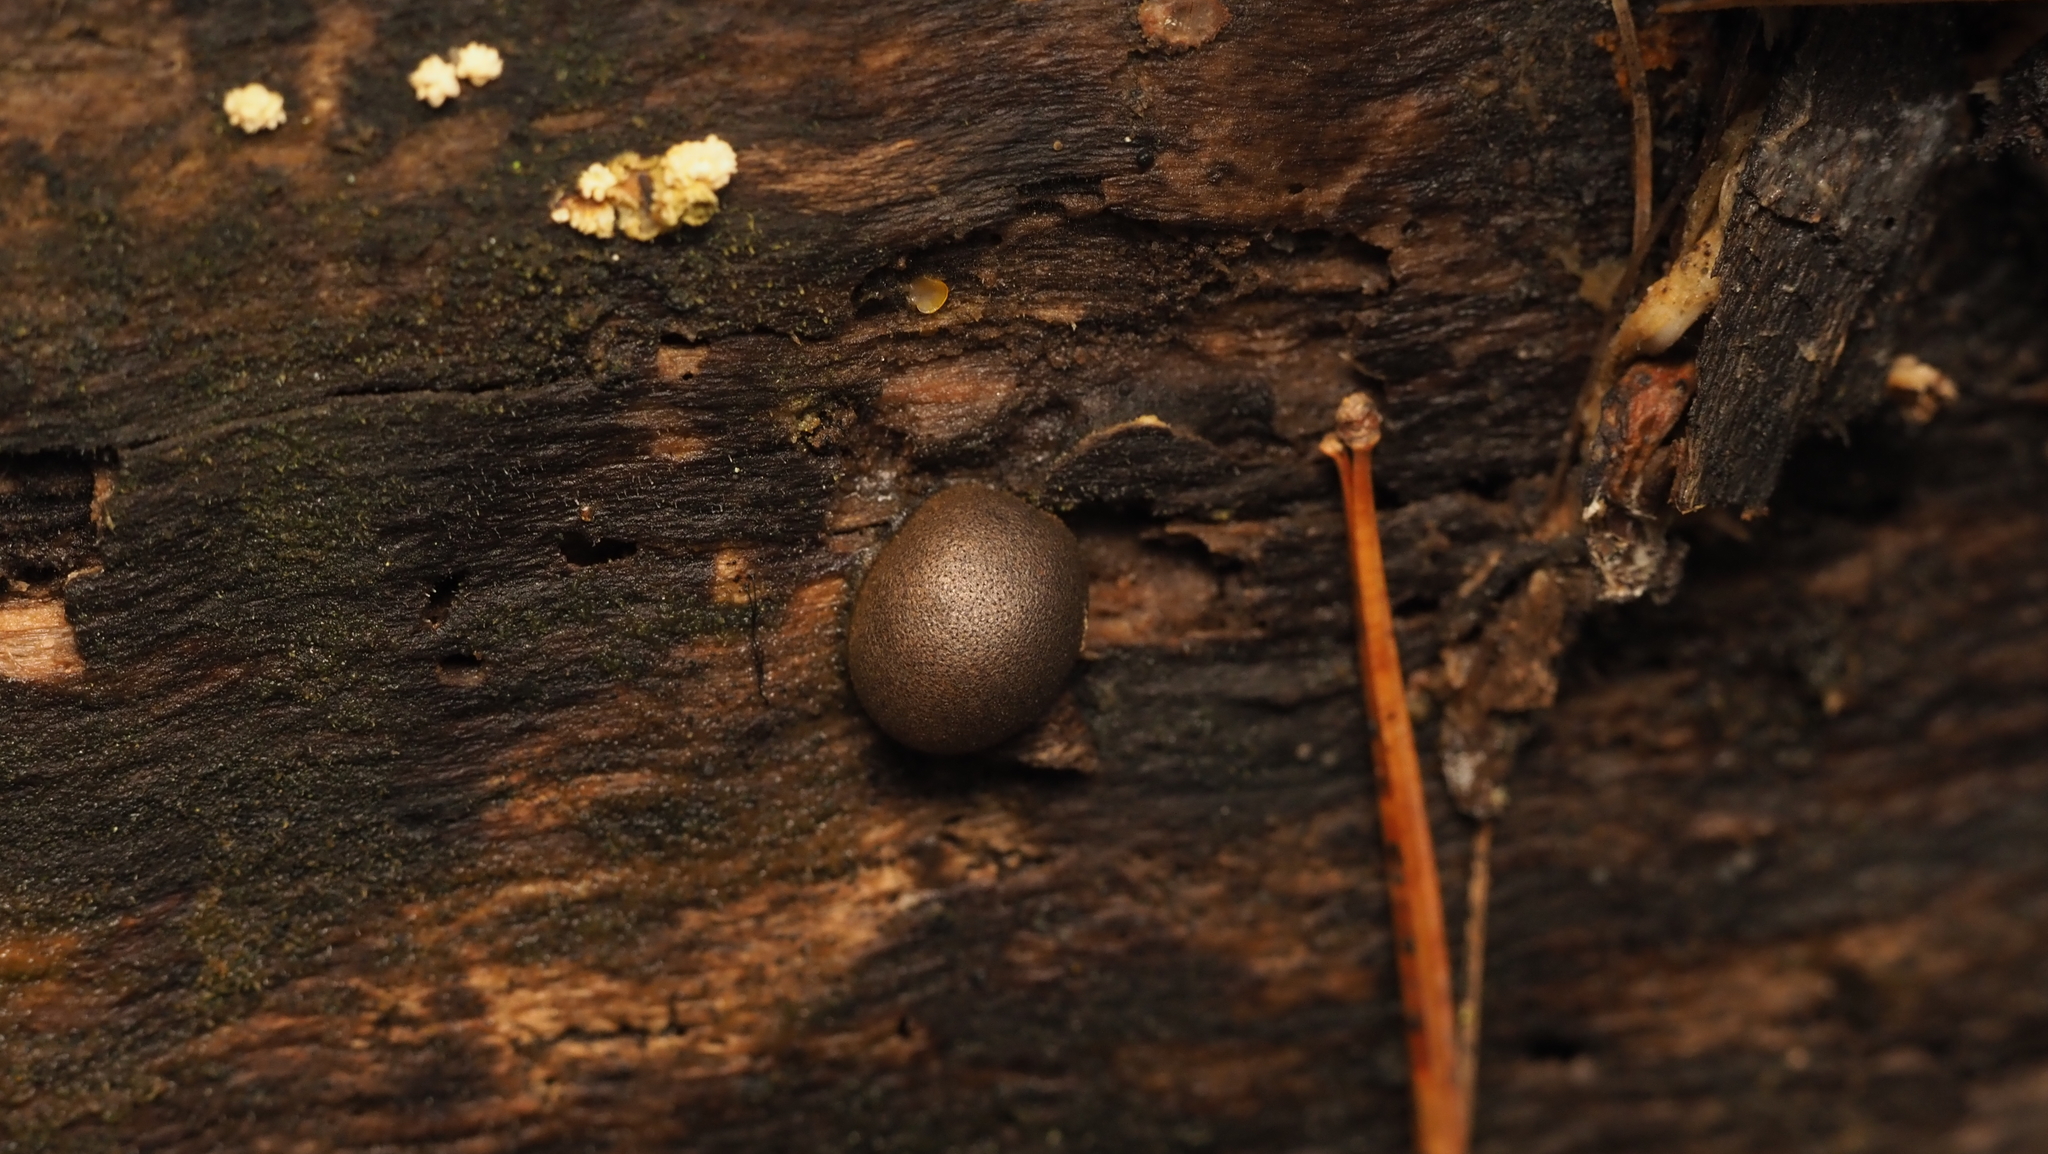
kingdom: Protozoa
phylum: Mycetozoa
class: Myxomycetes
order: Cribrariales
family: Tubiferaceae
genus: Lycogala
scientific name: Lycogala epidendrum
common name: Wolf's milk
